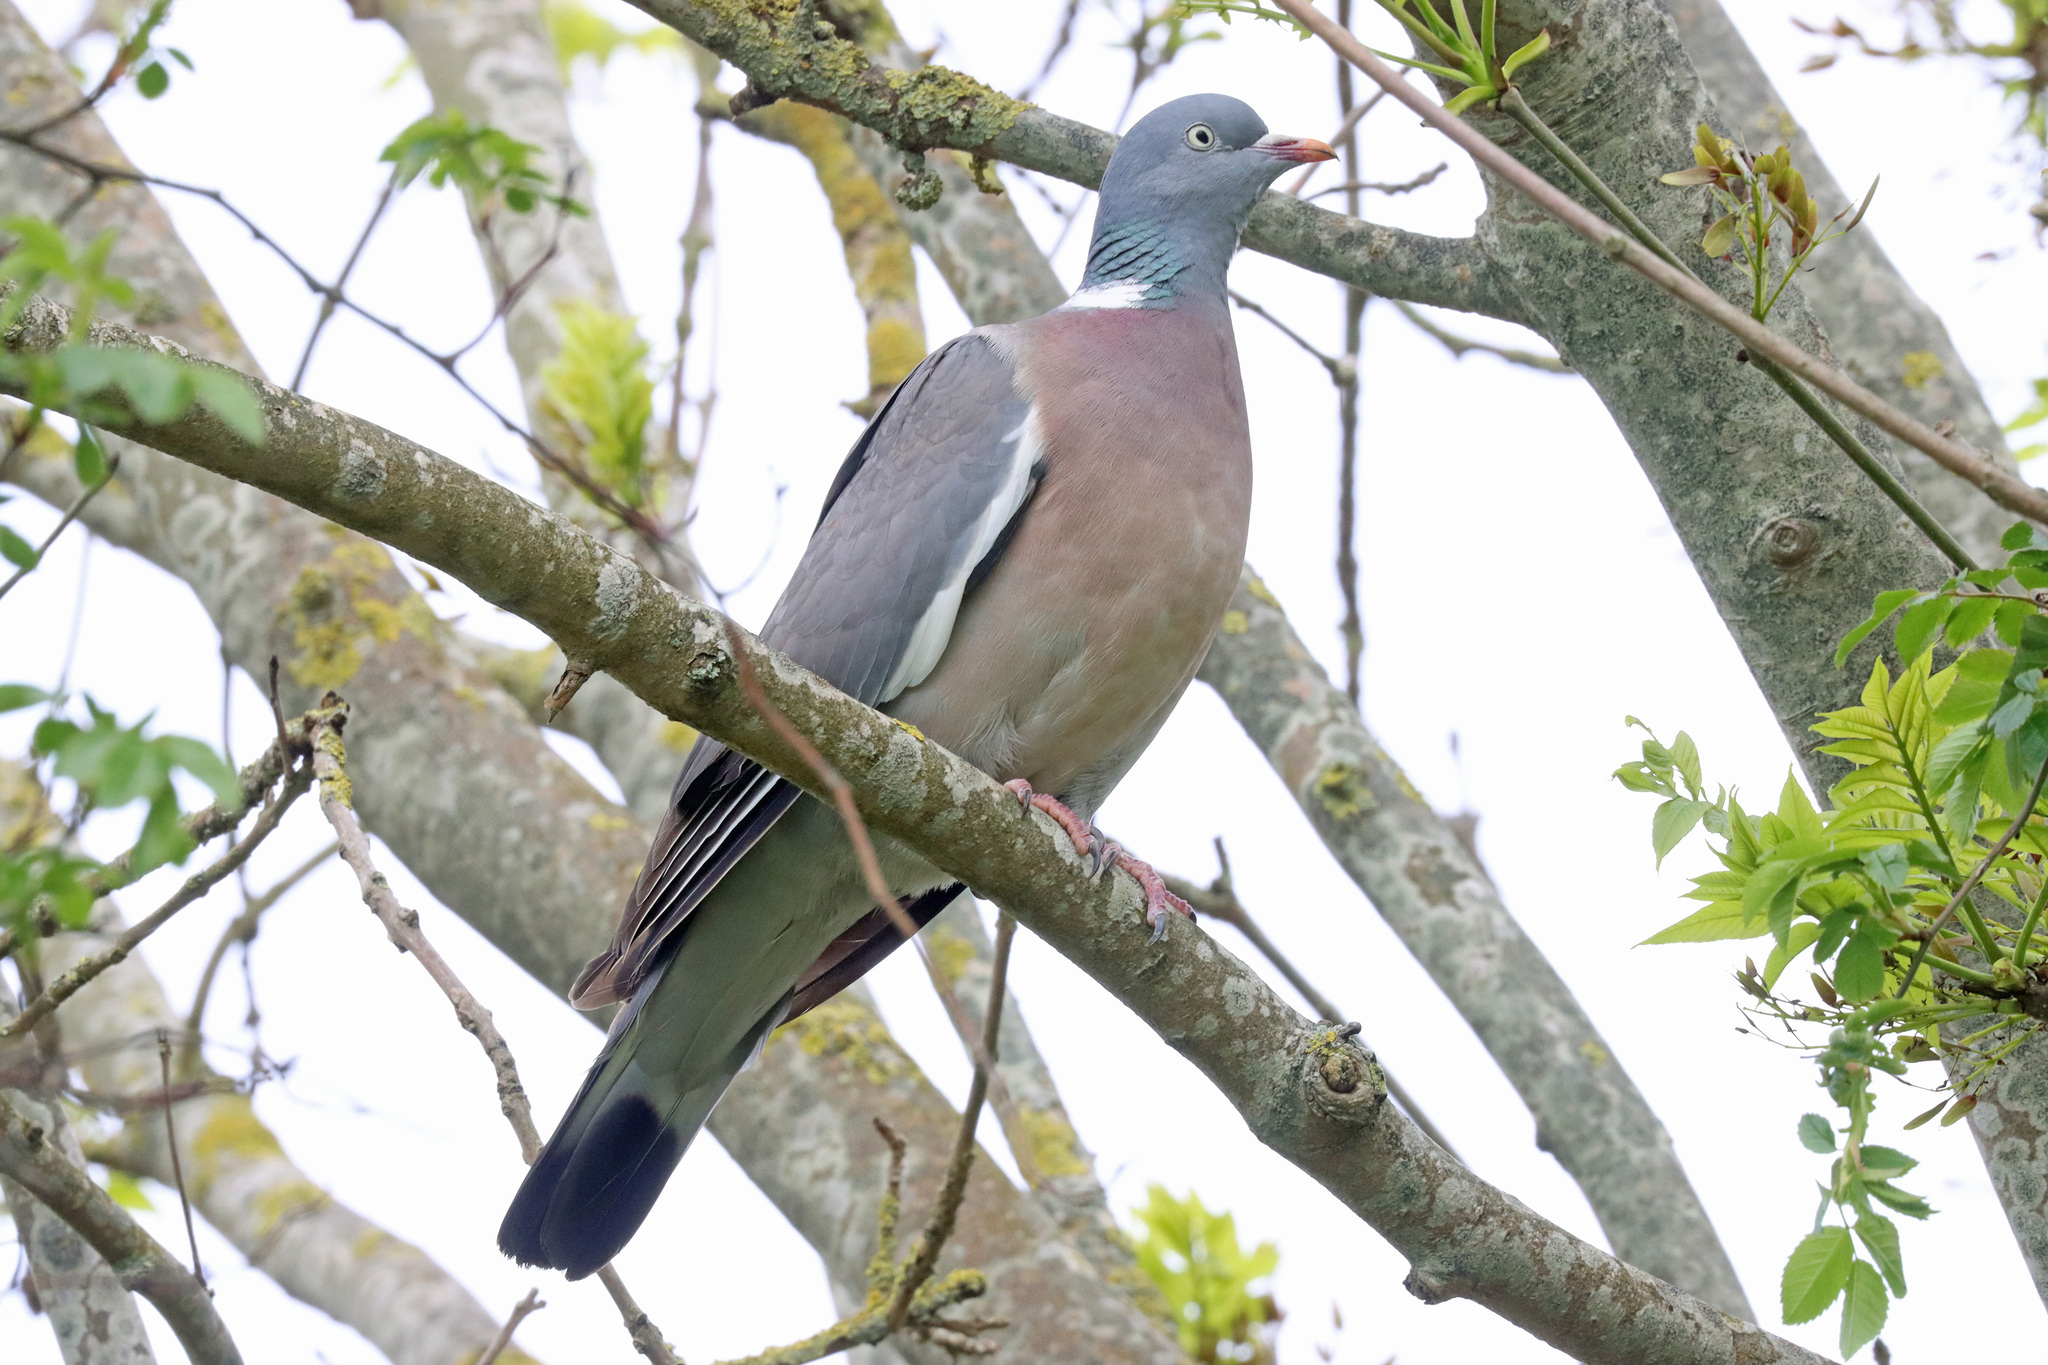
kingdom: Animalia
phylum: Chordata
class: Aves
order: Columbiformes
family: Columbidae
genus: Columba
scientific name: Columba palumbus
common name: Common wood pigeon
